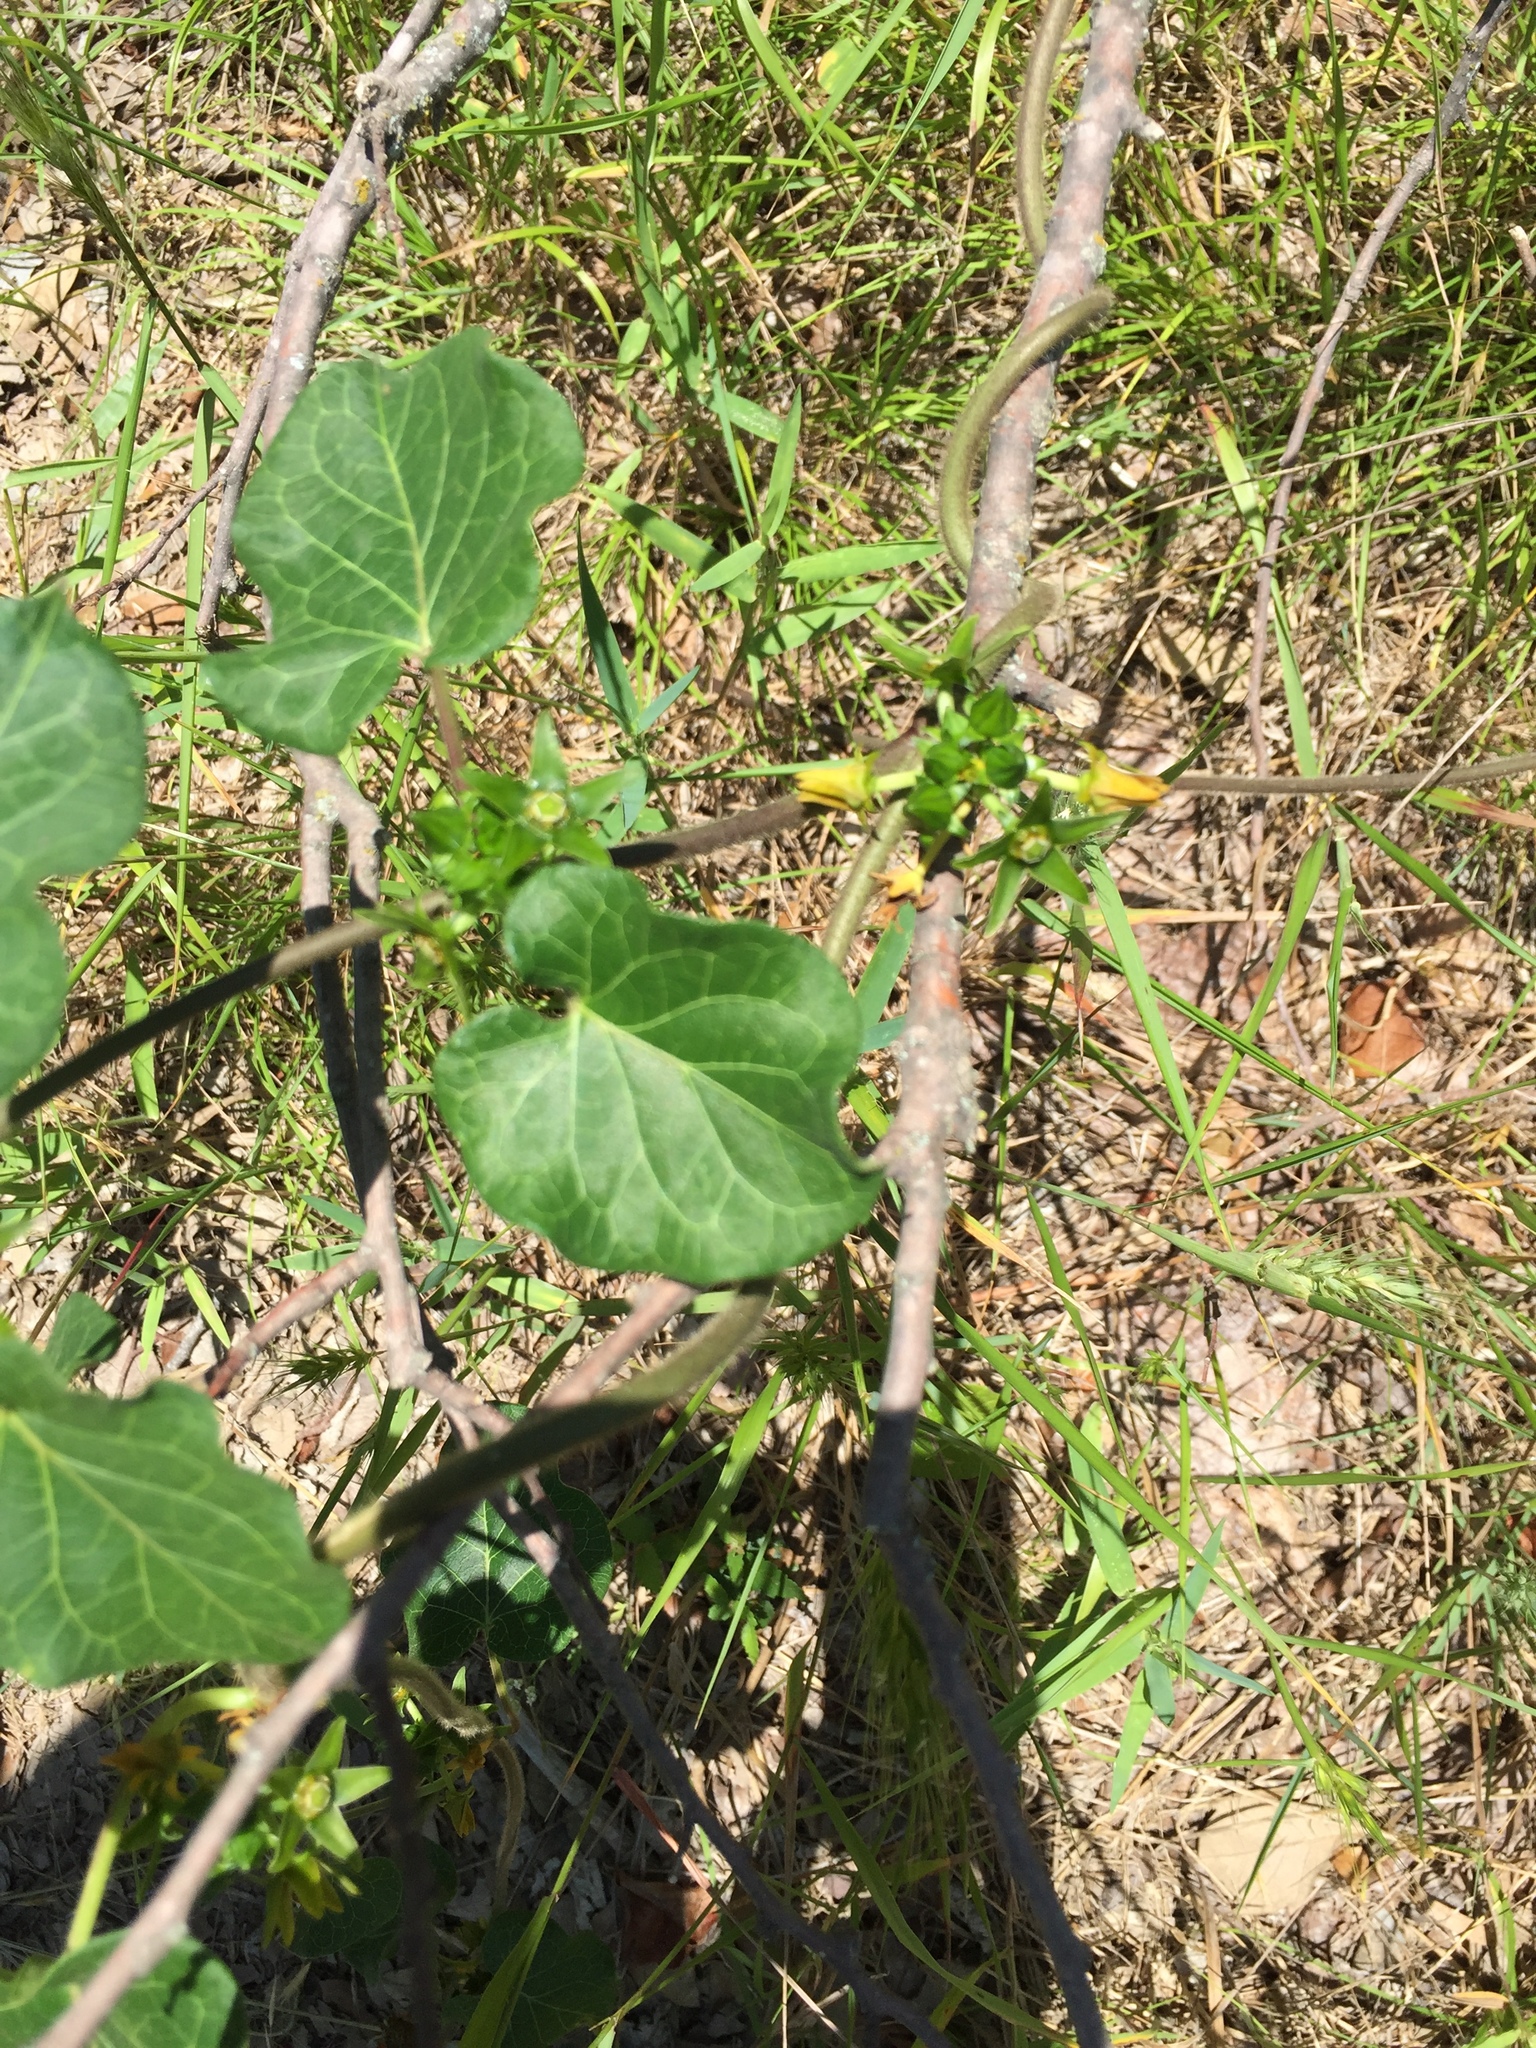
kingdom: Plantae
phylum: Tracheophyta
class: Magnoliopsida
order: Gentianales
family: Apocynaceae
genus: Gonolobus
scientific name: Gonolobus suberosus
